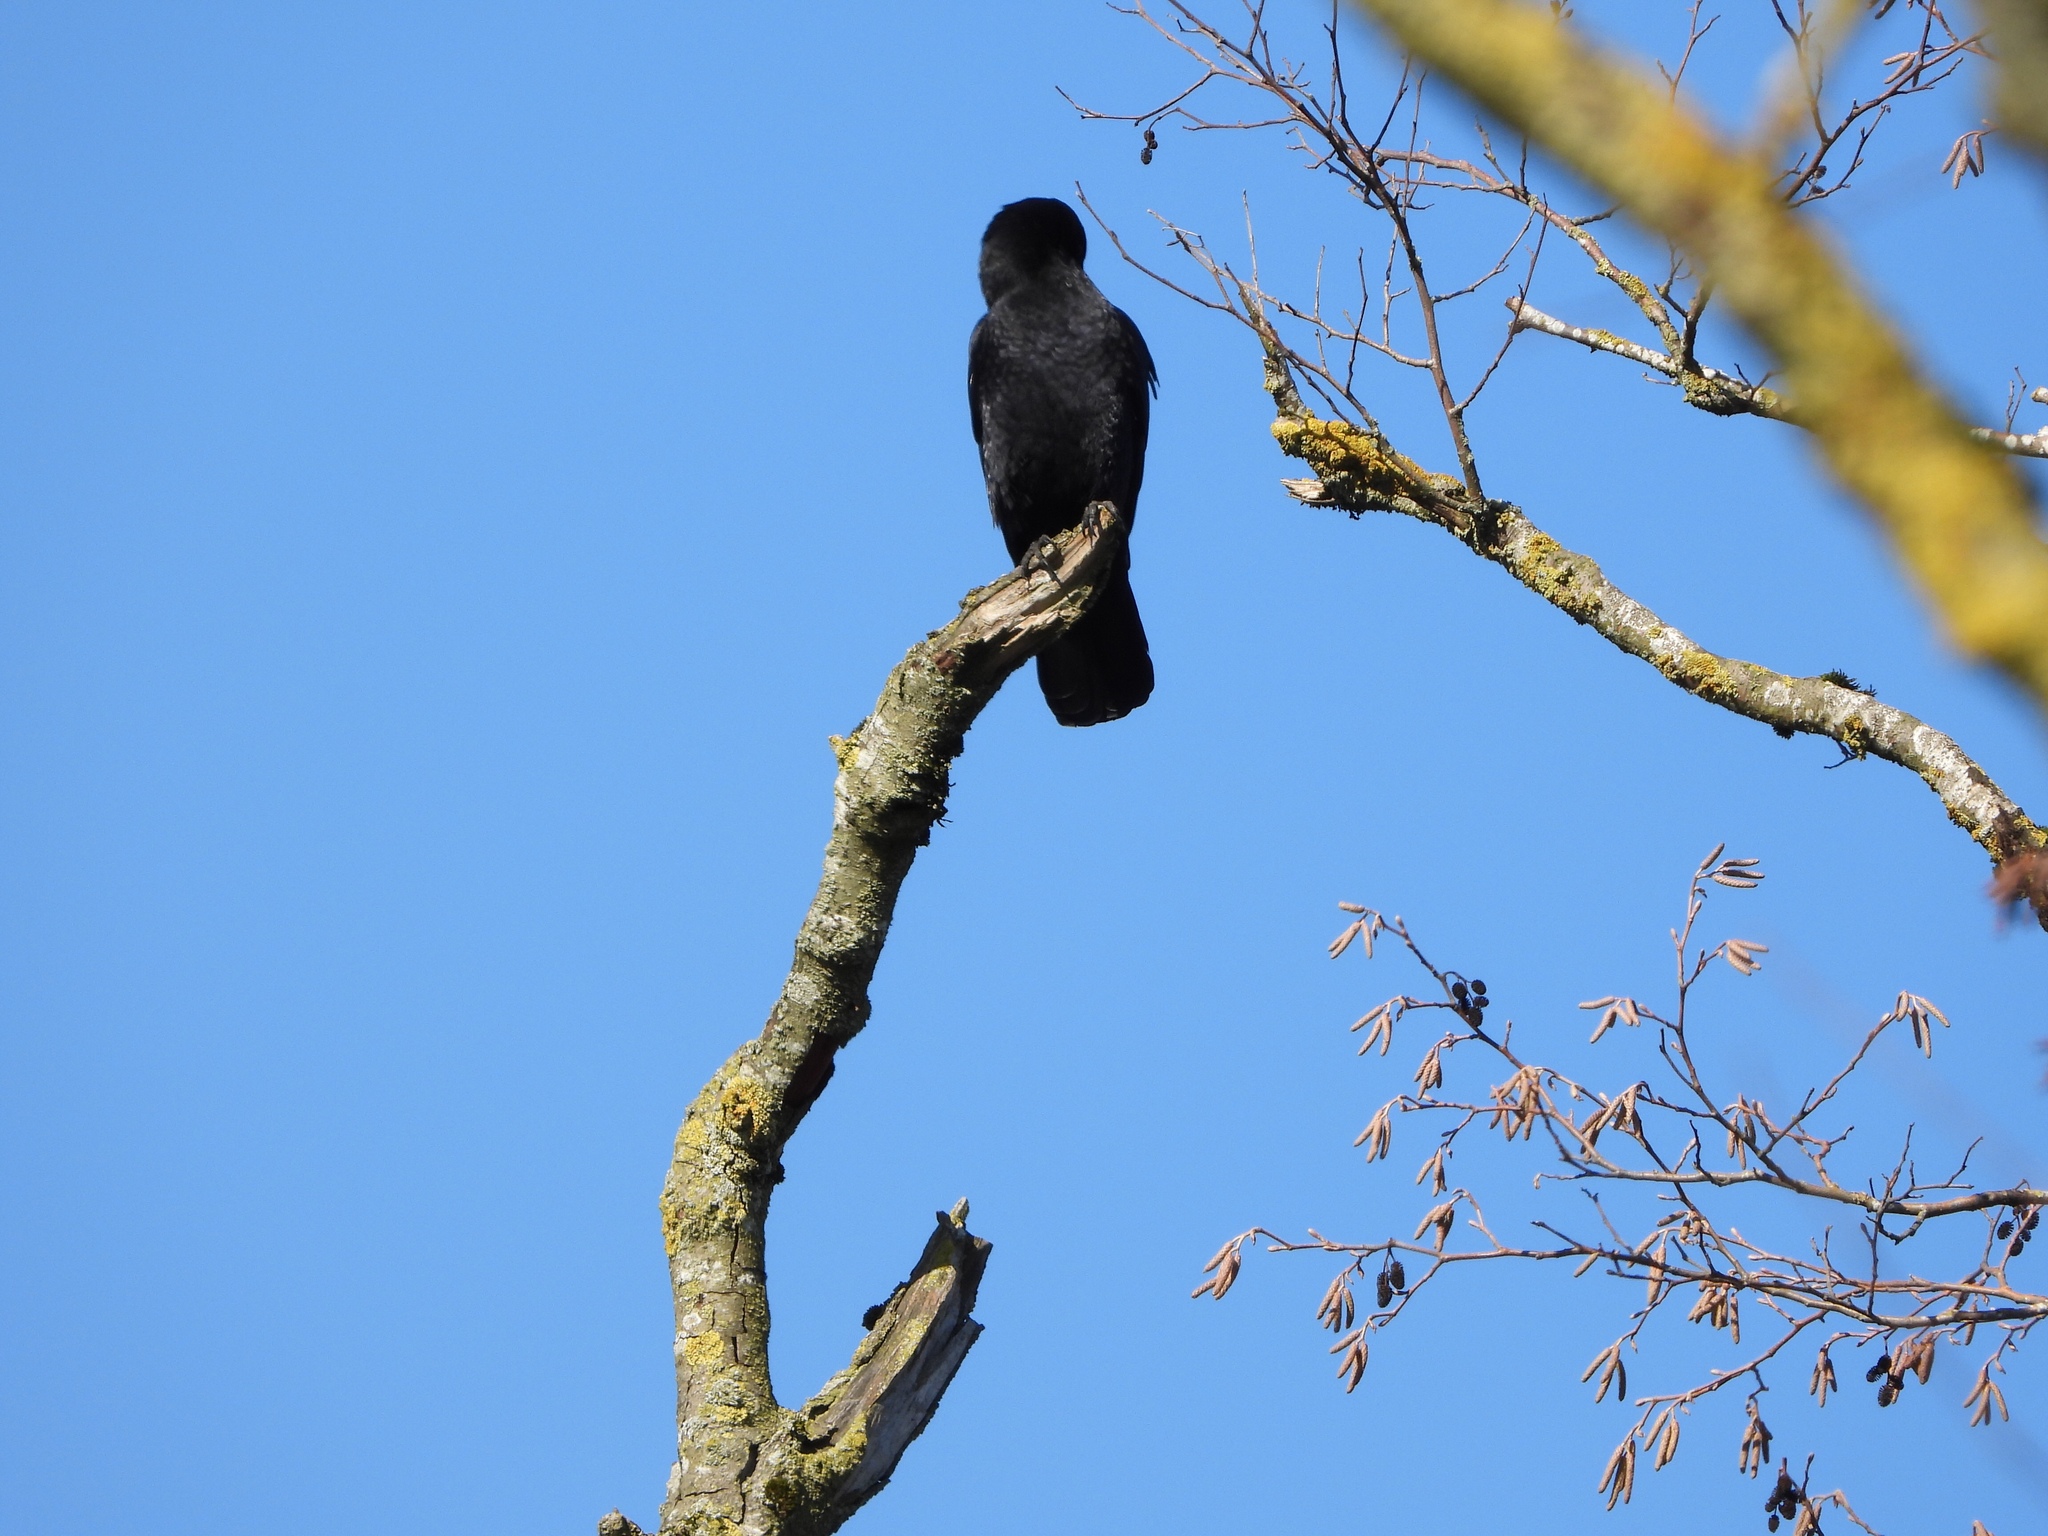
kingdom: Animalia
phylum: Chordata
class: Aves
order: Passeriformes
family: Corvidae
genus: Corvus
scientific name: Corvus brachyrhynchos
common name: American crow
